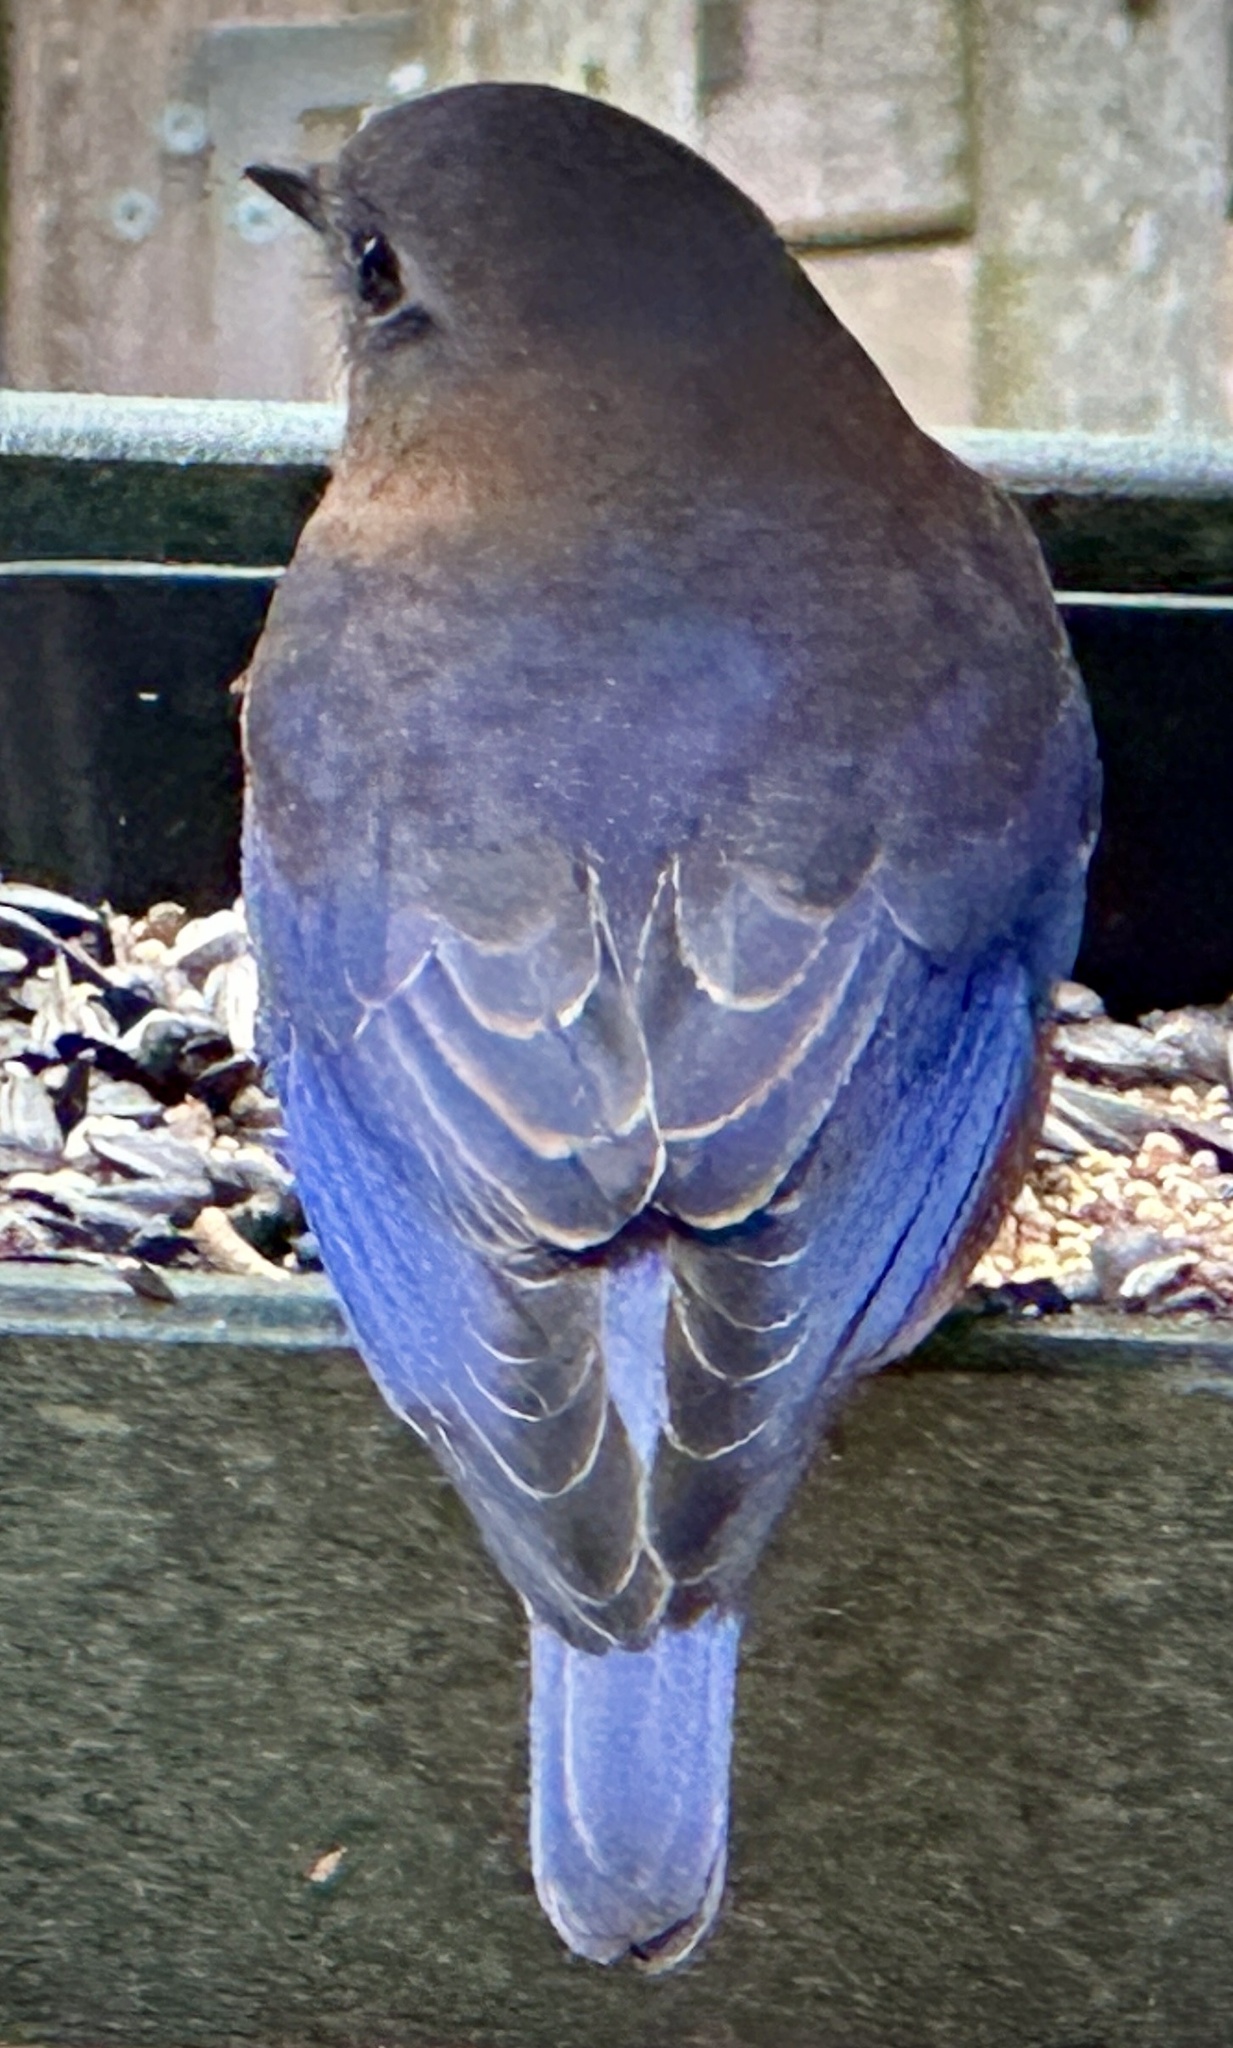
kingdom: Animalia
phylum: Chordata
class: Aves
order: Passeriformes
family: Turdidae
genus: Sialia
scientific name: Sialia sialis
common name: Eastern bluebird
